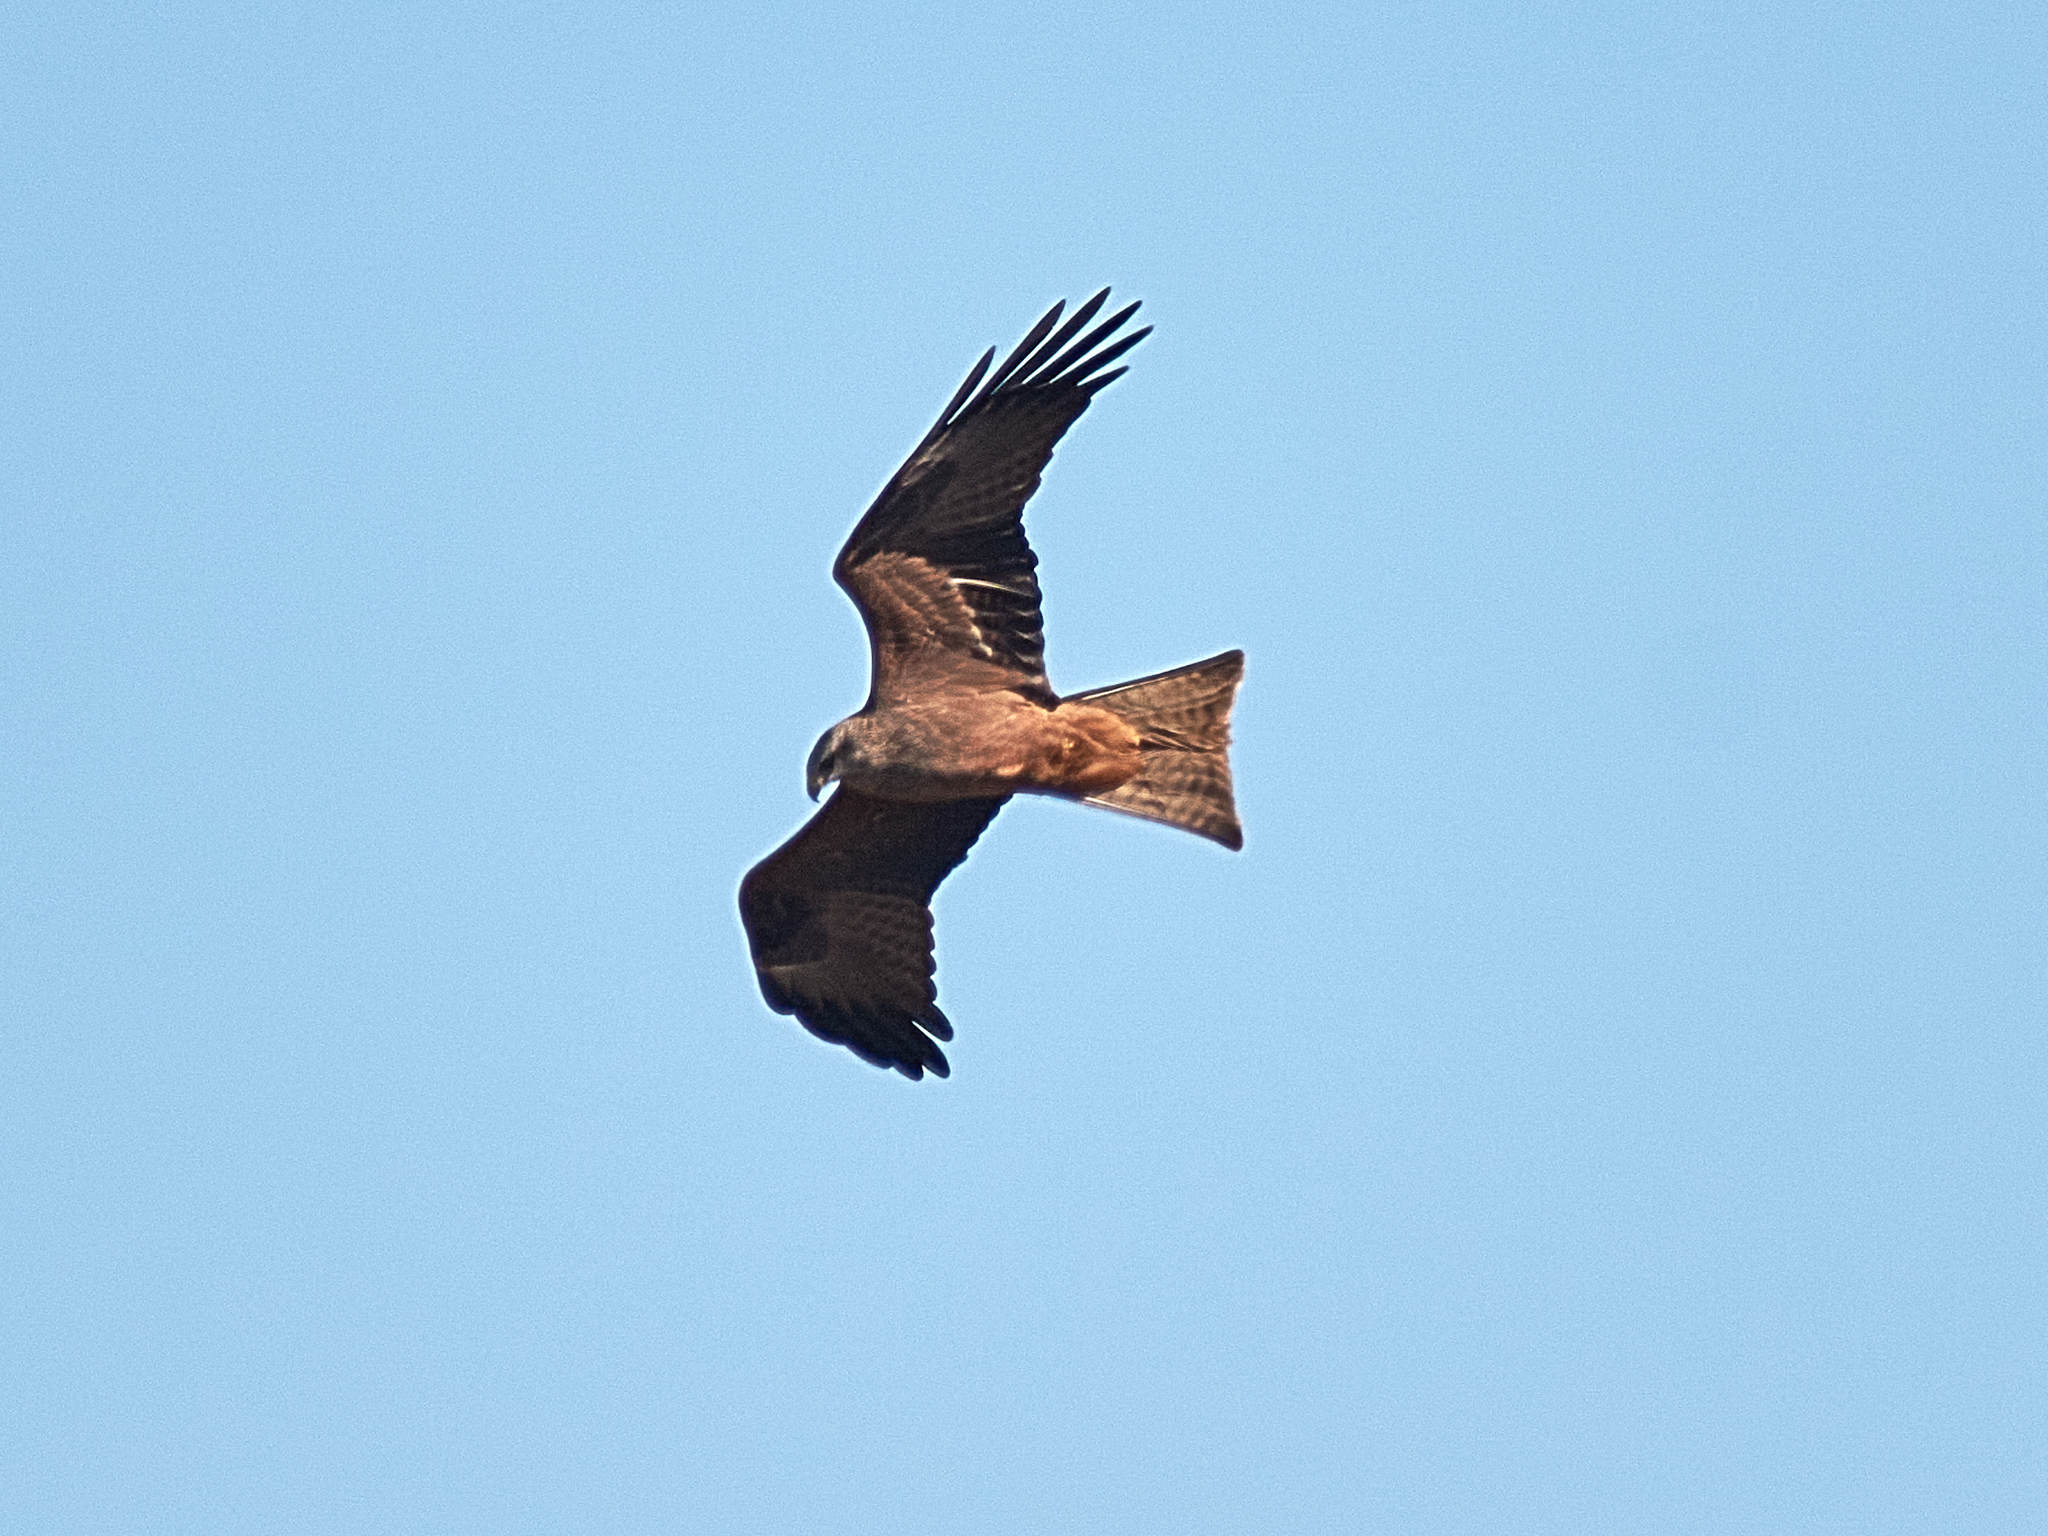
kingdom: Animalia
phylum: Chordata
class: Aves
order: Accipitriformes
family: Accipitridae
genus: Milvus
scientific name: Milvus migrans
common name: Black kite
